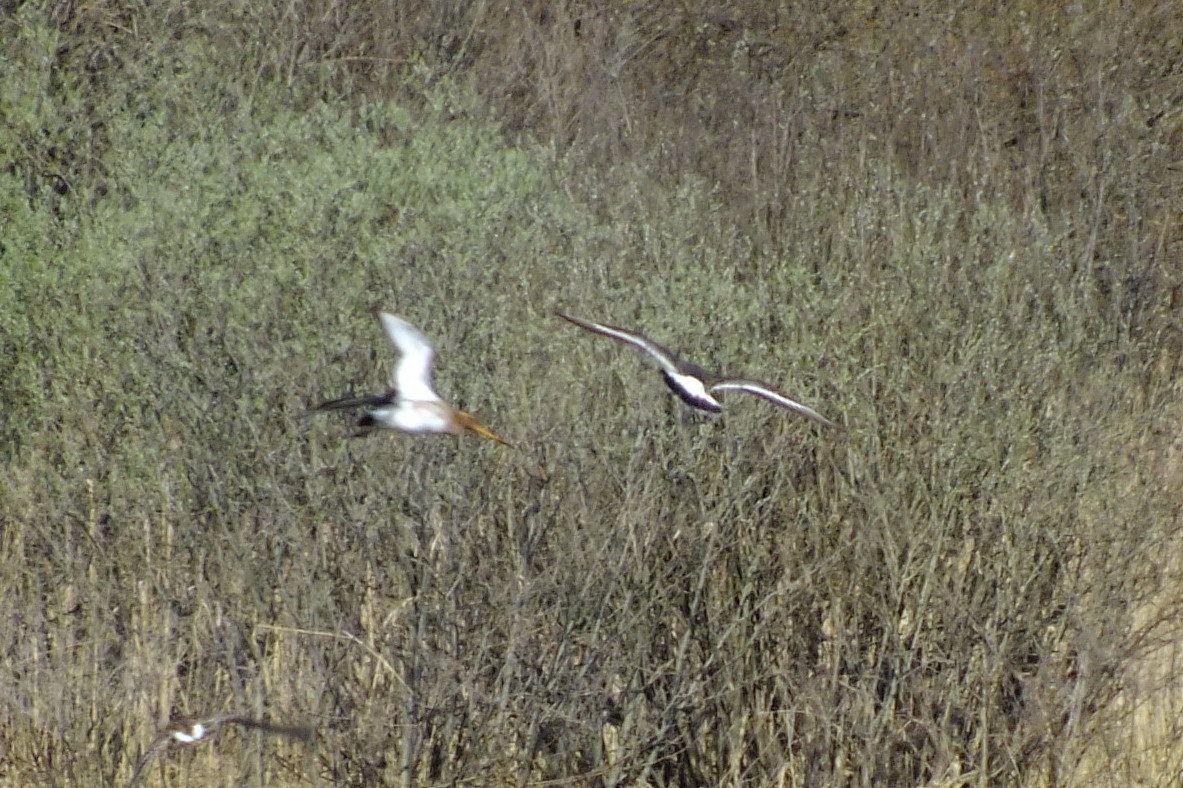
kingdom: Animalia
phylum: Chordata
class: Aves
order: Charadriiformes
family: Scolopacidae
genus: Limosa
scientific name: Limosa limosa
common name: Black-tailed godwit
